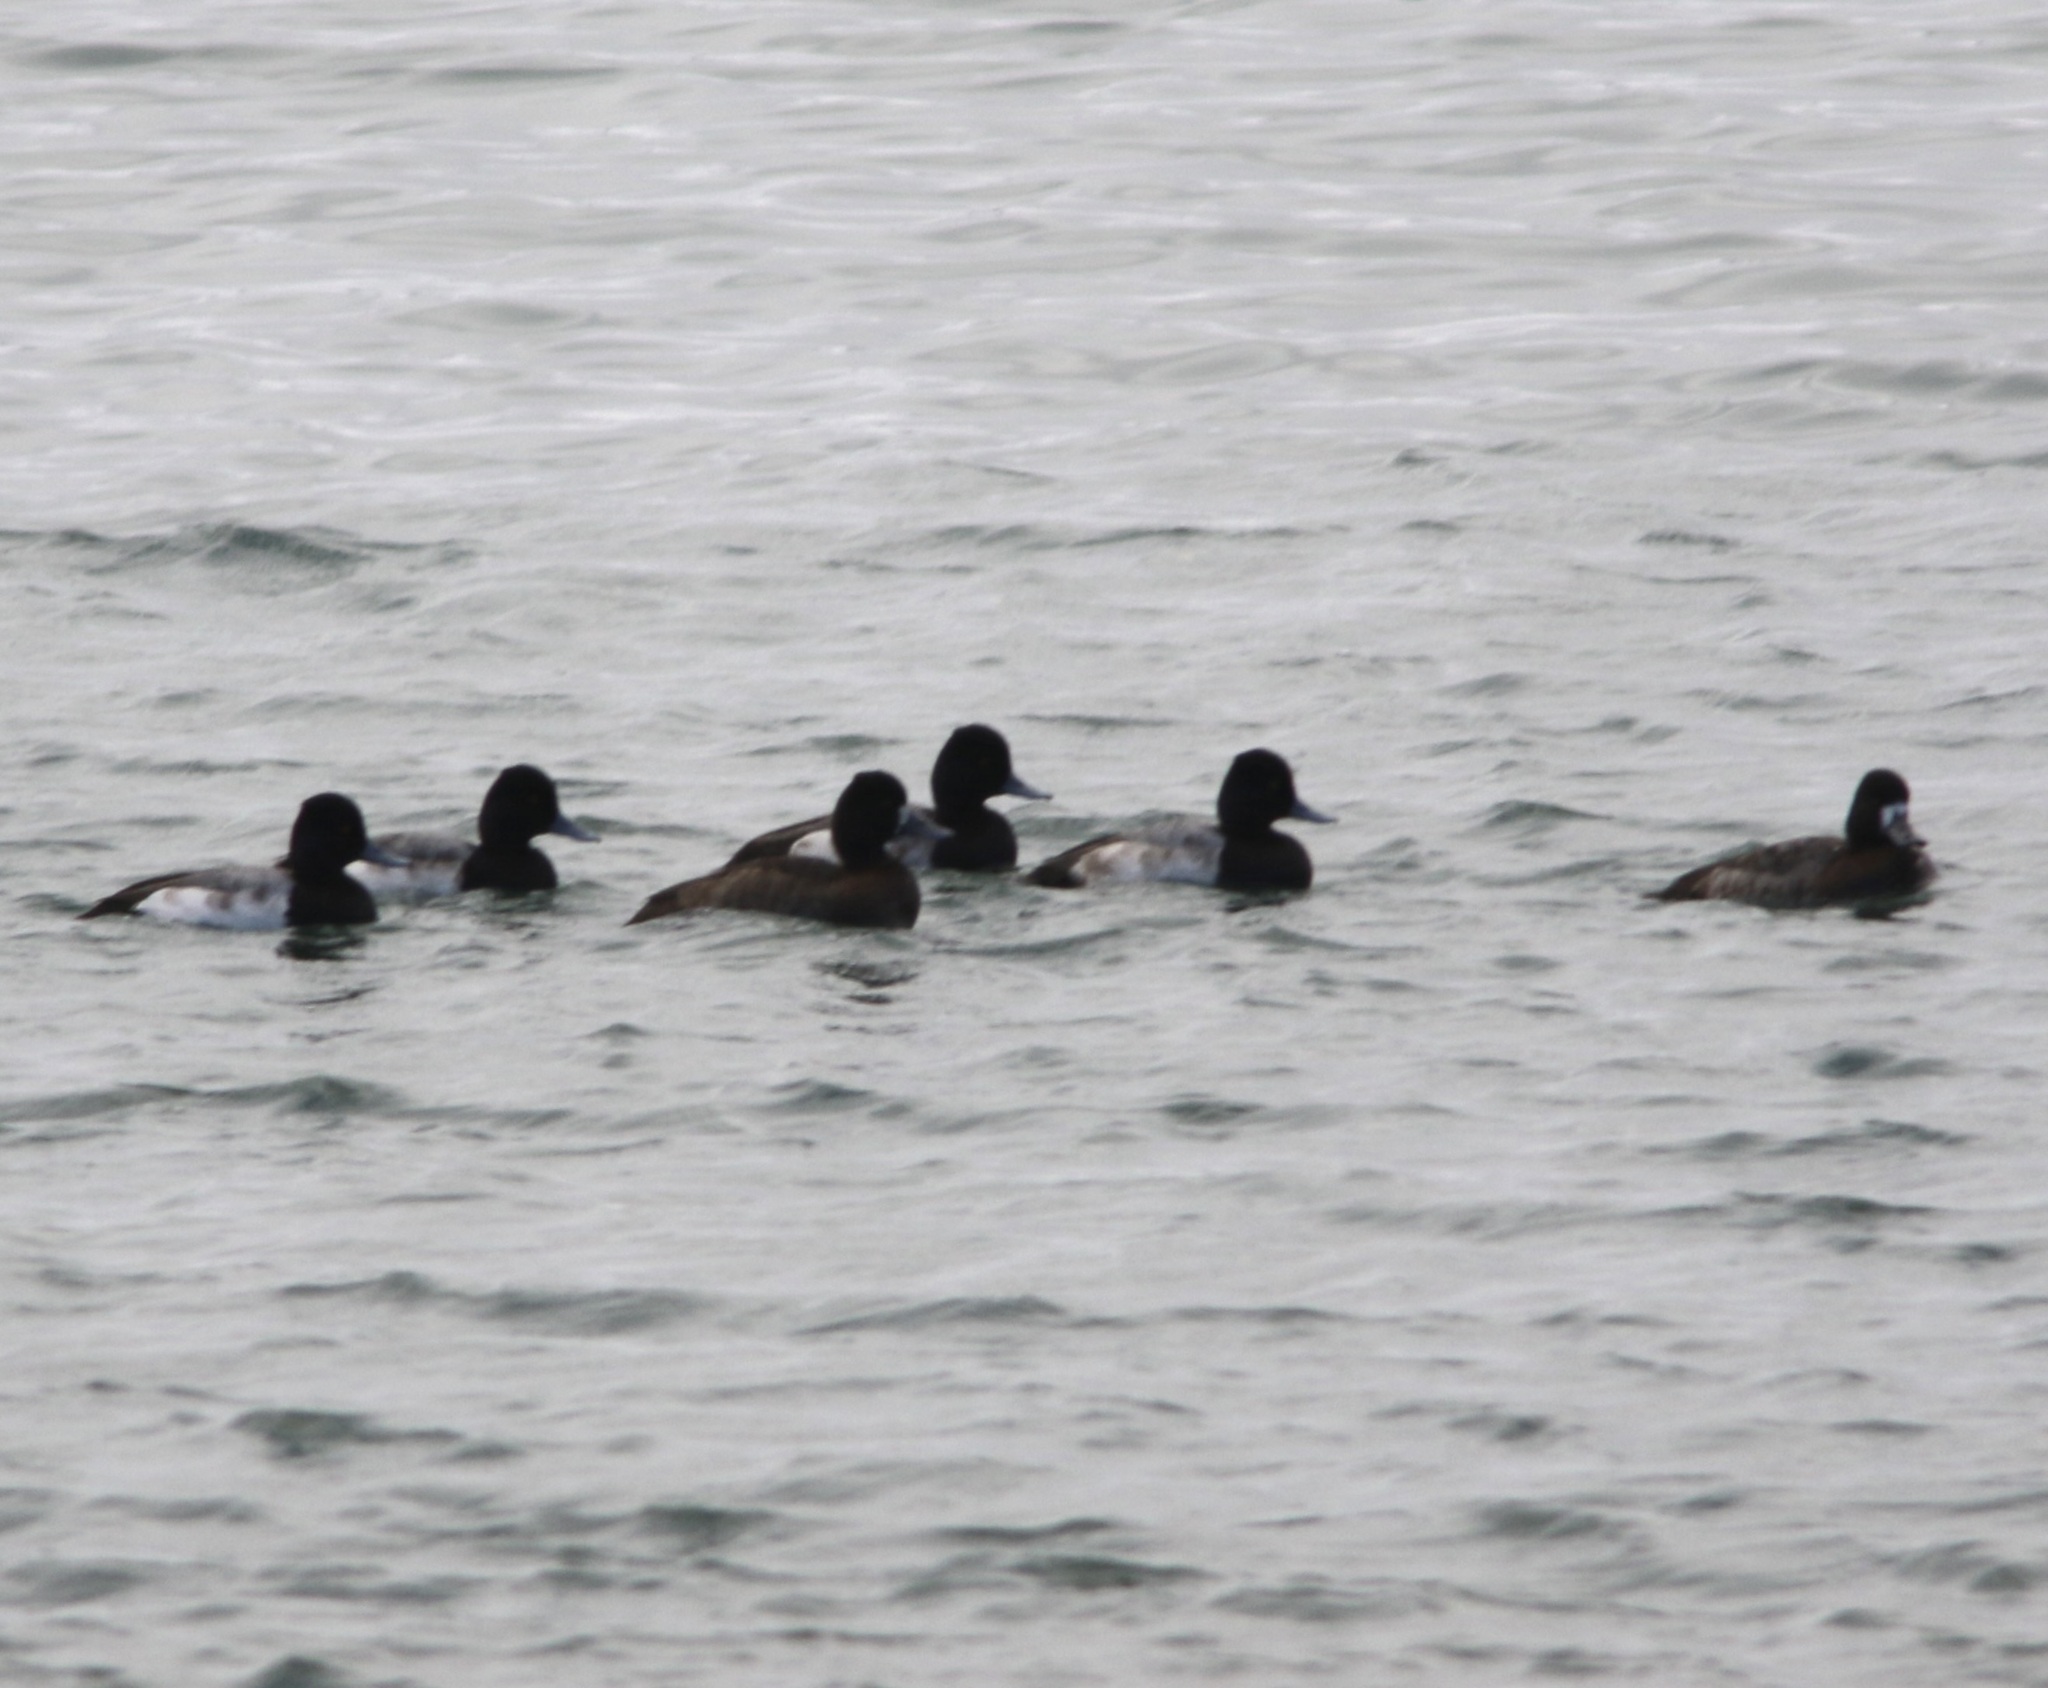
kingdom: Animalia
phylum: Chordata
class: Aves
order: Anseriformes
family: Anatidae
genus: Aythya
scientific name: Aythya affinis
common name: Lesser scaup
